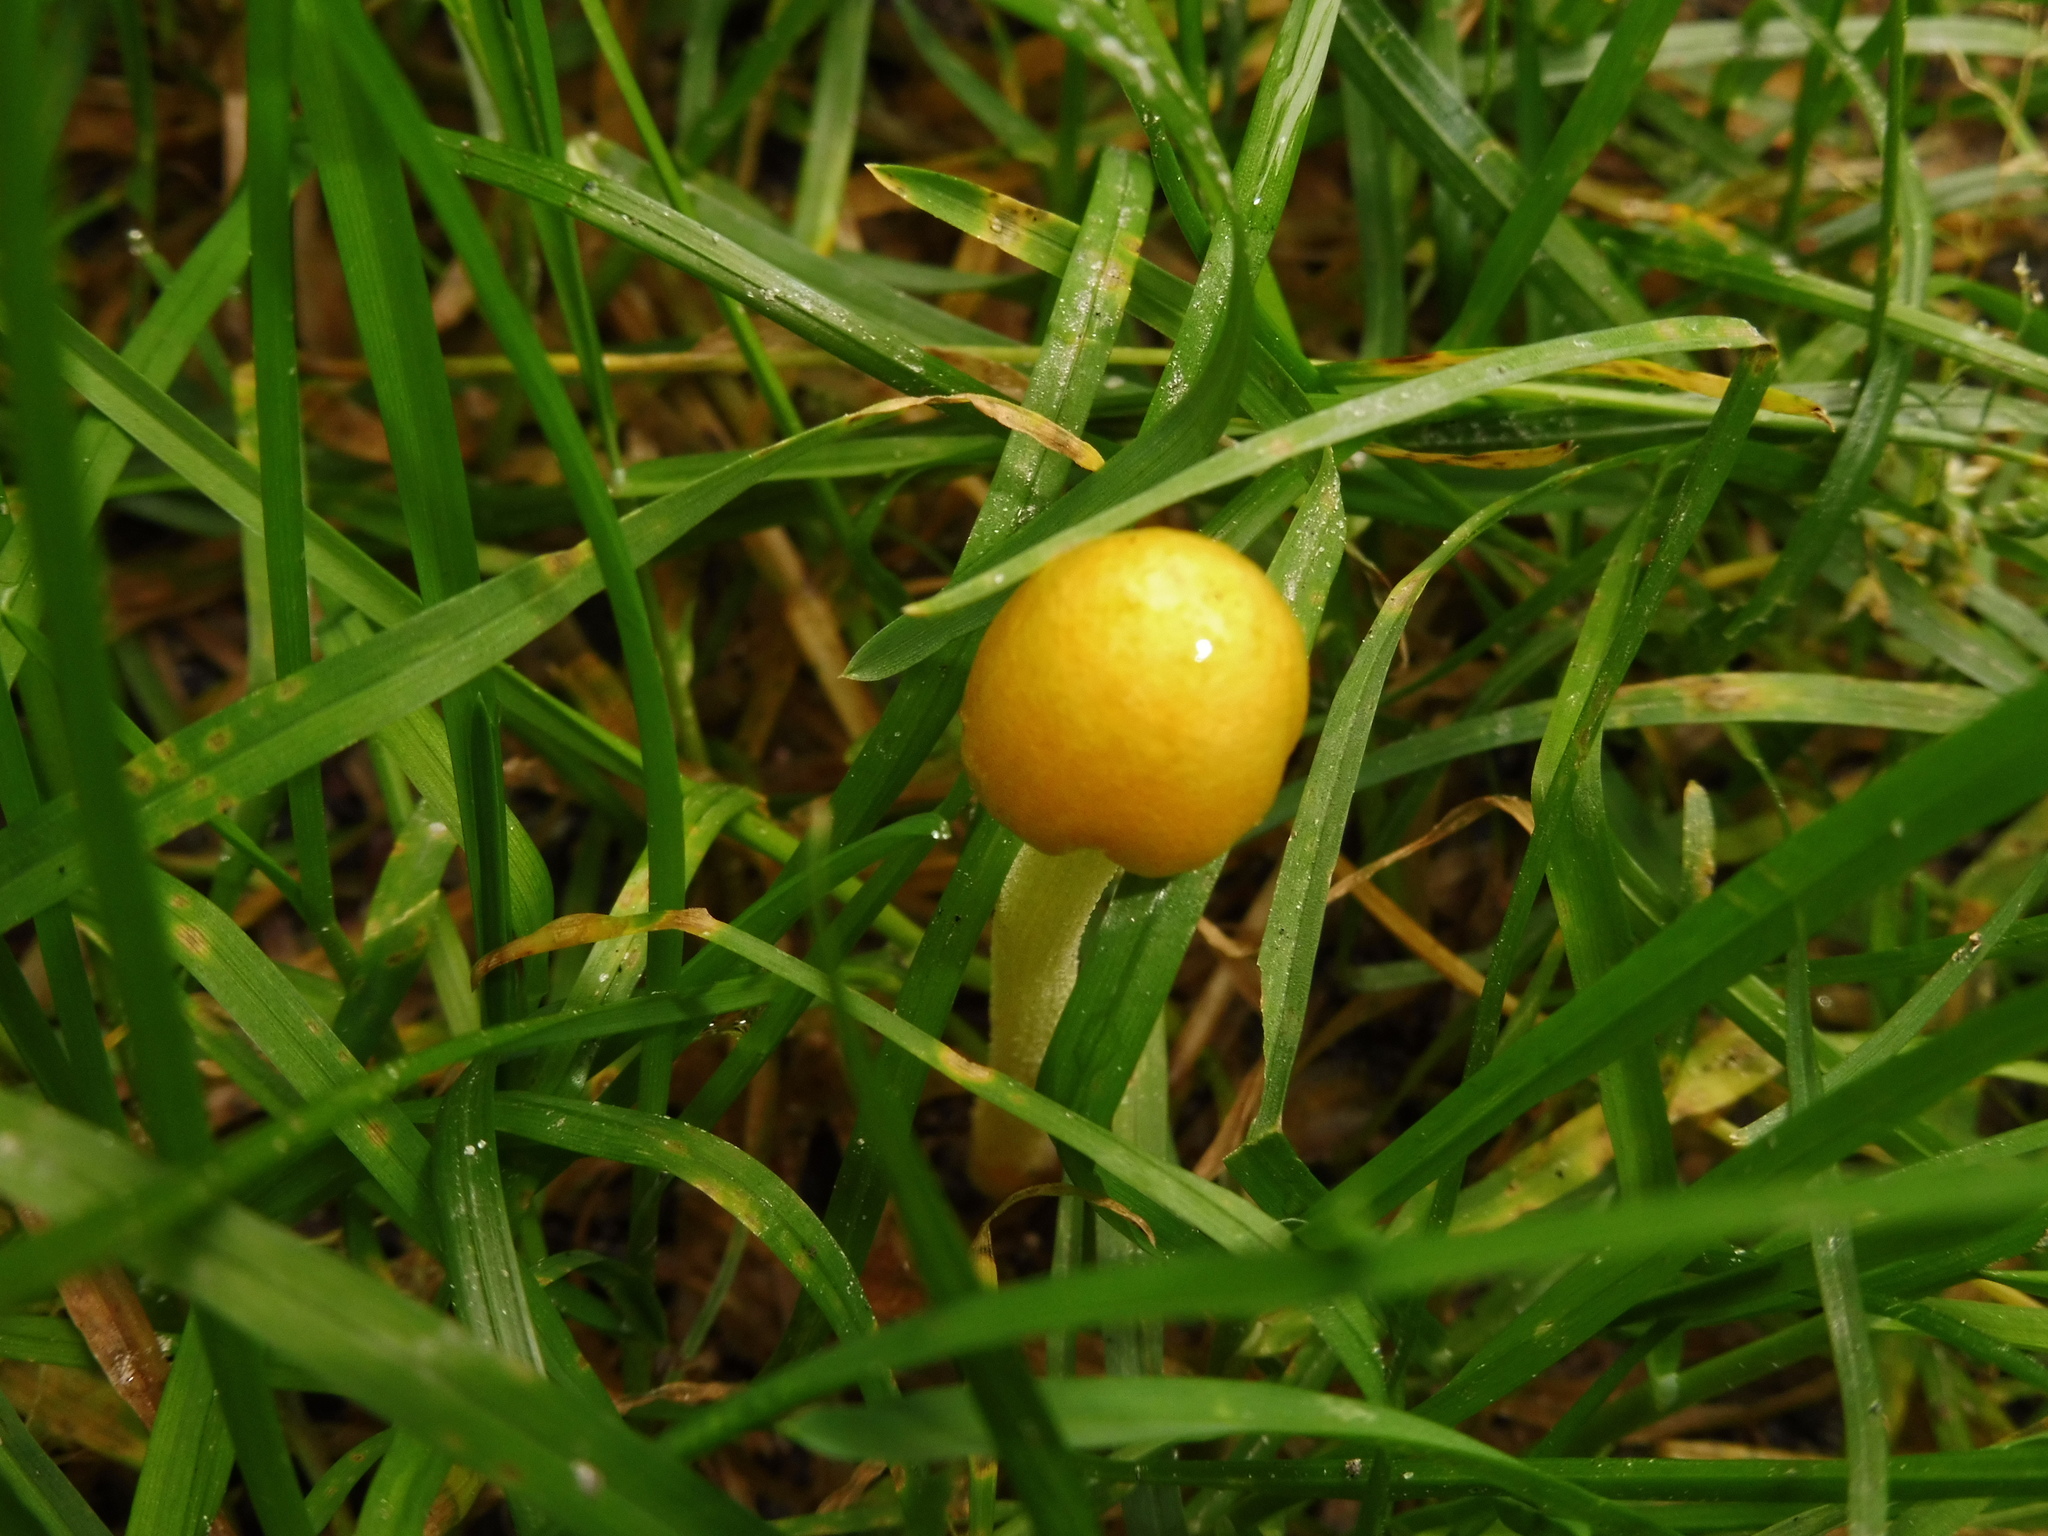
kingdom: Fungi
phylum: Basidiomycota
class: Agaricomycetes
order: Agaricales
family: Bolbitiaceae
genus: Bolbitius
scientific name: Bolbitius titubans
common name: Yellow fieldcap
